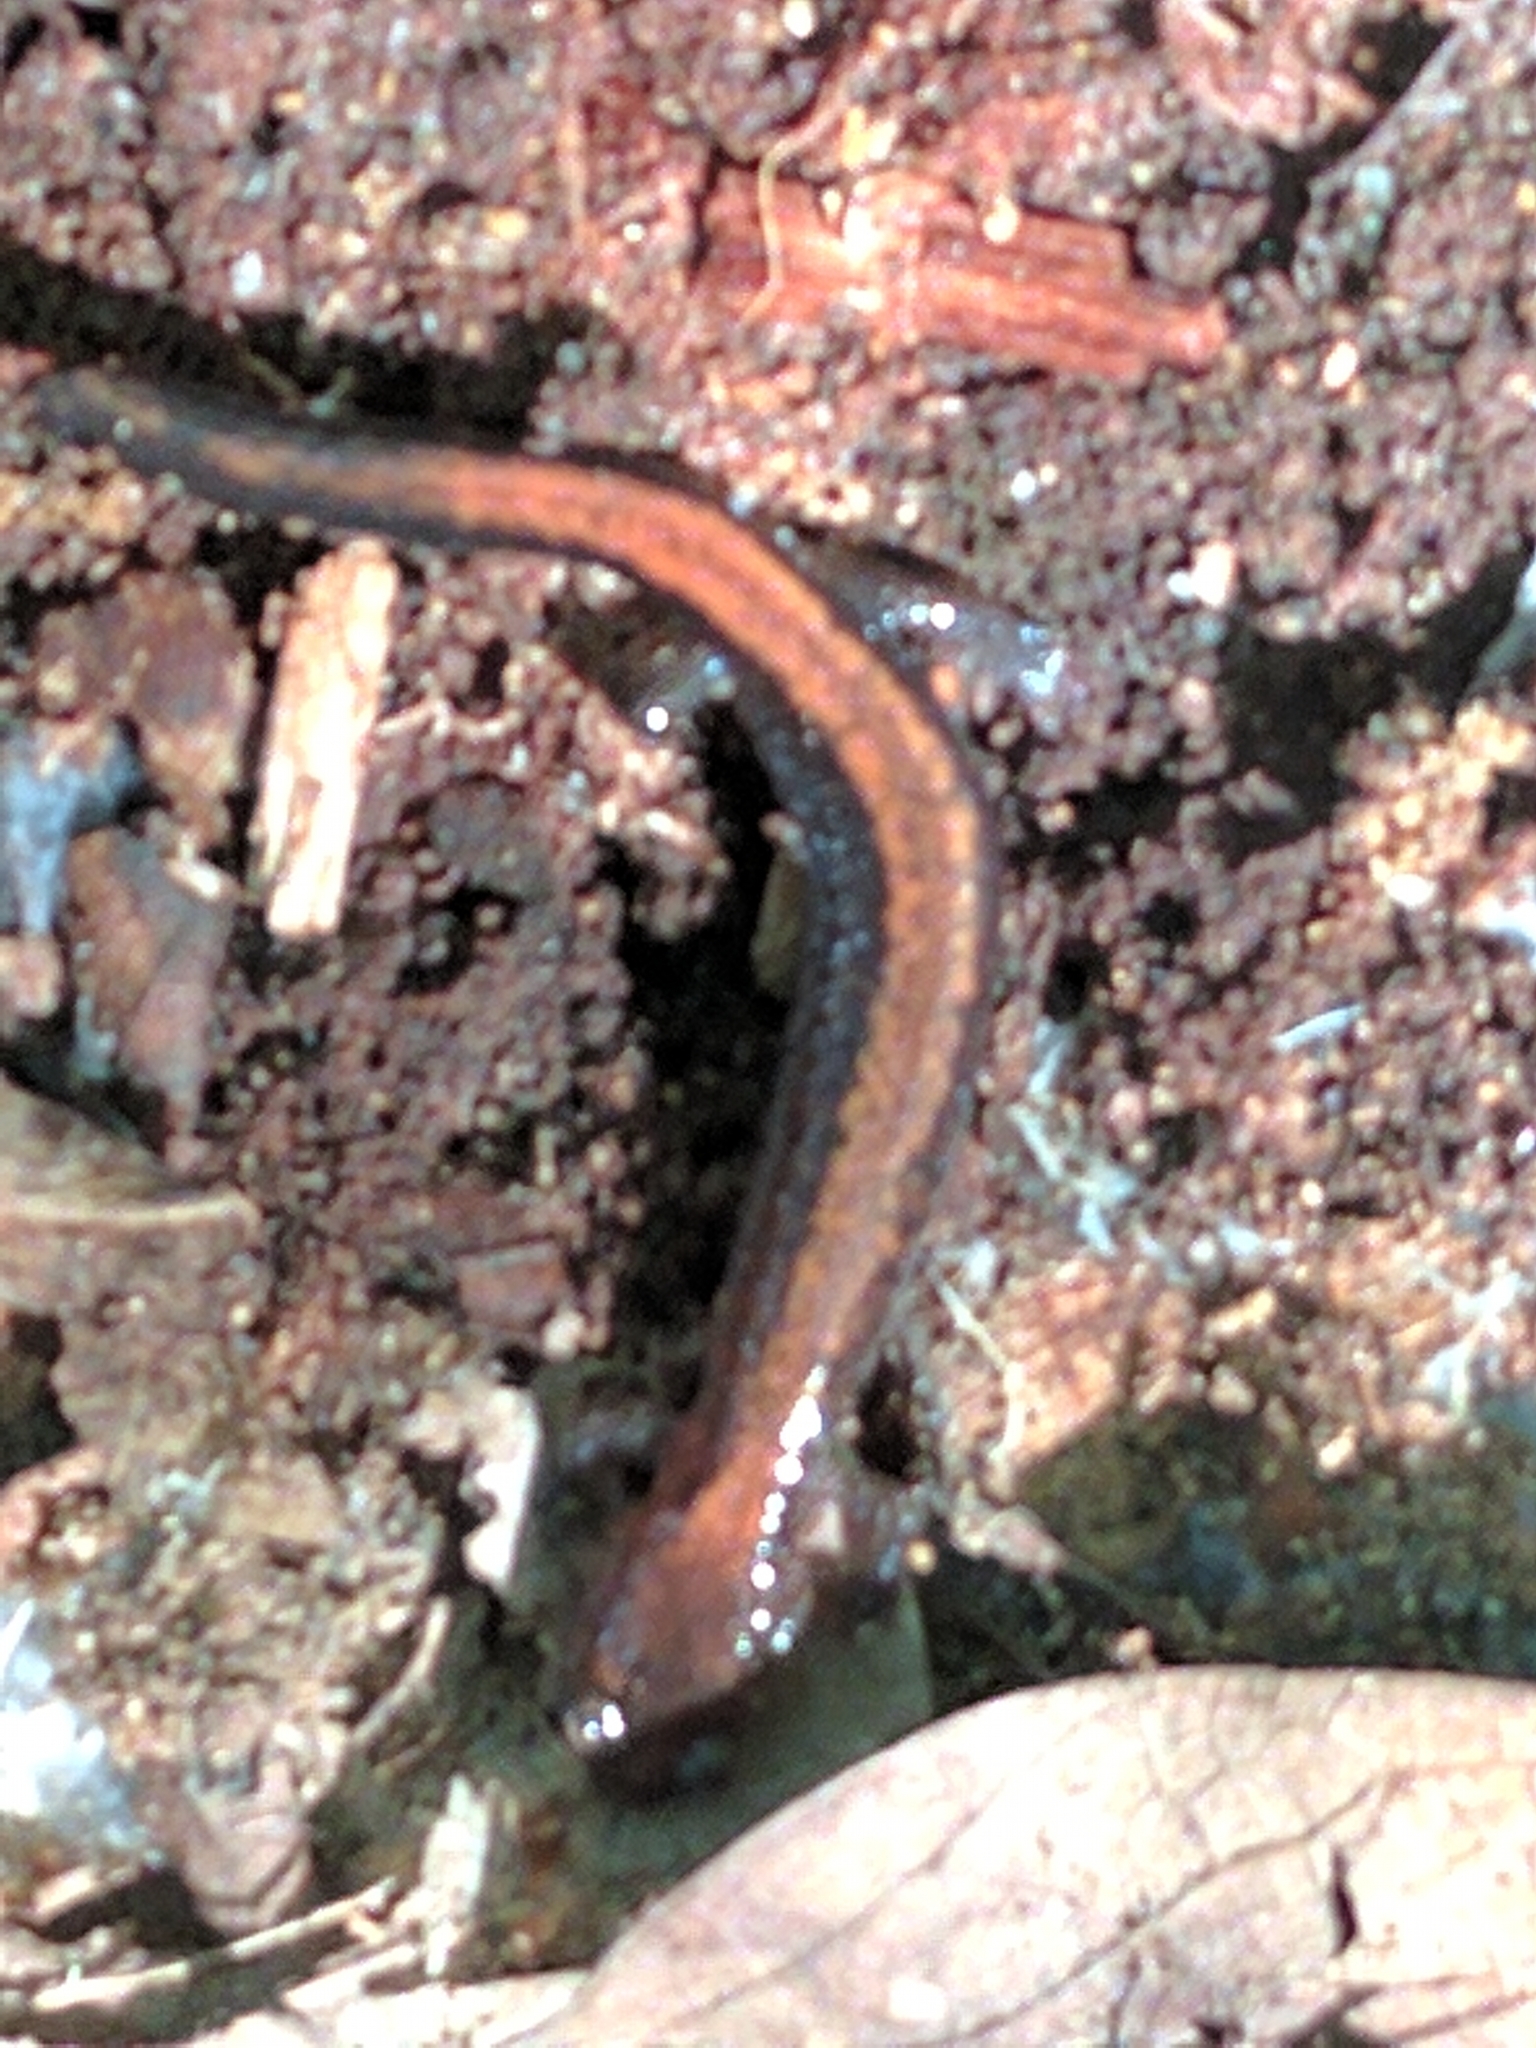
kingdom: Animalia
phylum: Chordata
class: Amphibia
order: Caudata
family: Plethodontidae
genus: Plethodon
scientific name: Plethodon cinereus
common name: Redback salamander
